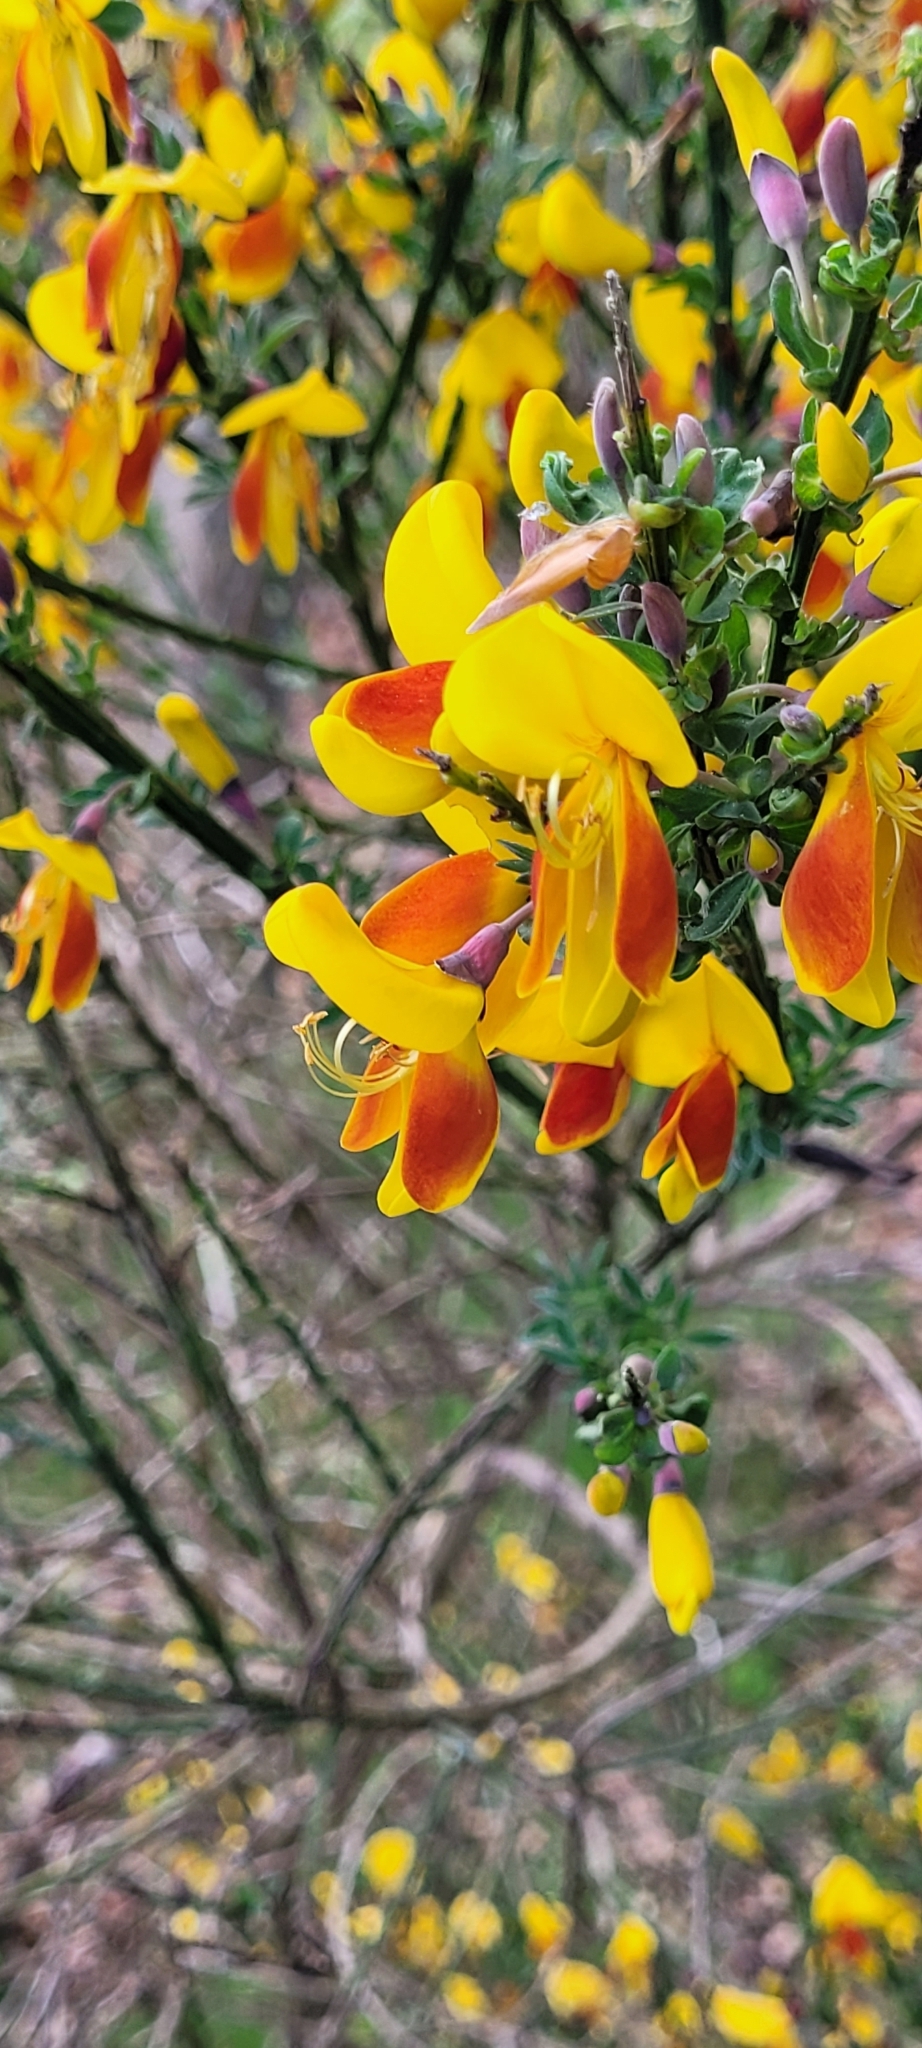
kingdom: Plantae
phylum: Tracheophyta
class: Magnoliopsida
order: Fabales
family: Fabaceae
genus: Cytisus
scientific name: Cytisus scoparius
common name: Scotch broom
